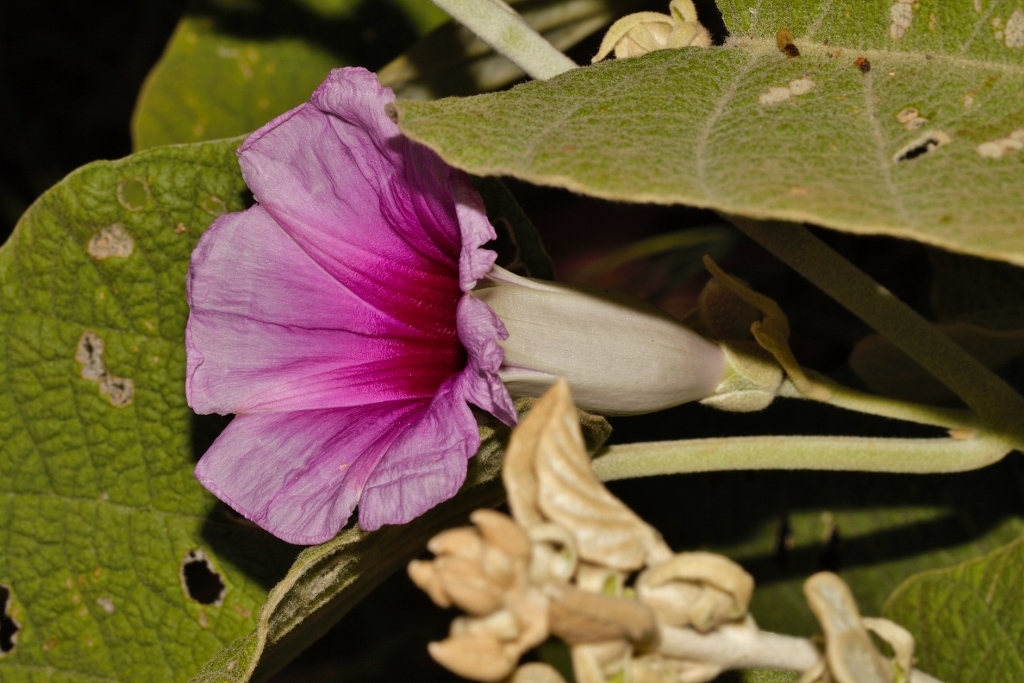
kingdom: Plantae
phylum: Tracheophyta
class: Magnoliopsida
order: Solanales
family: Convolvulaceae
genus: Ipomoea
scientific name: Ipomoea verbascoidea
